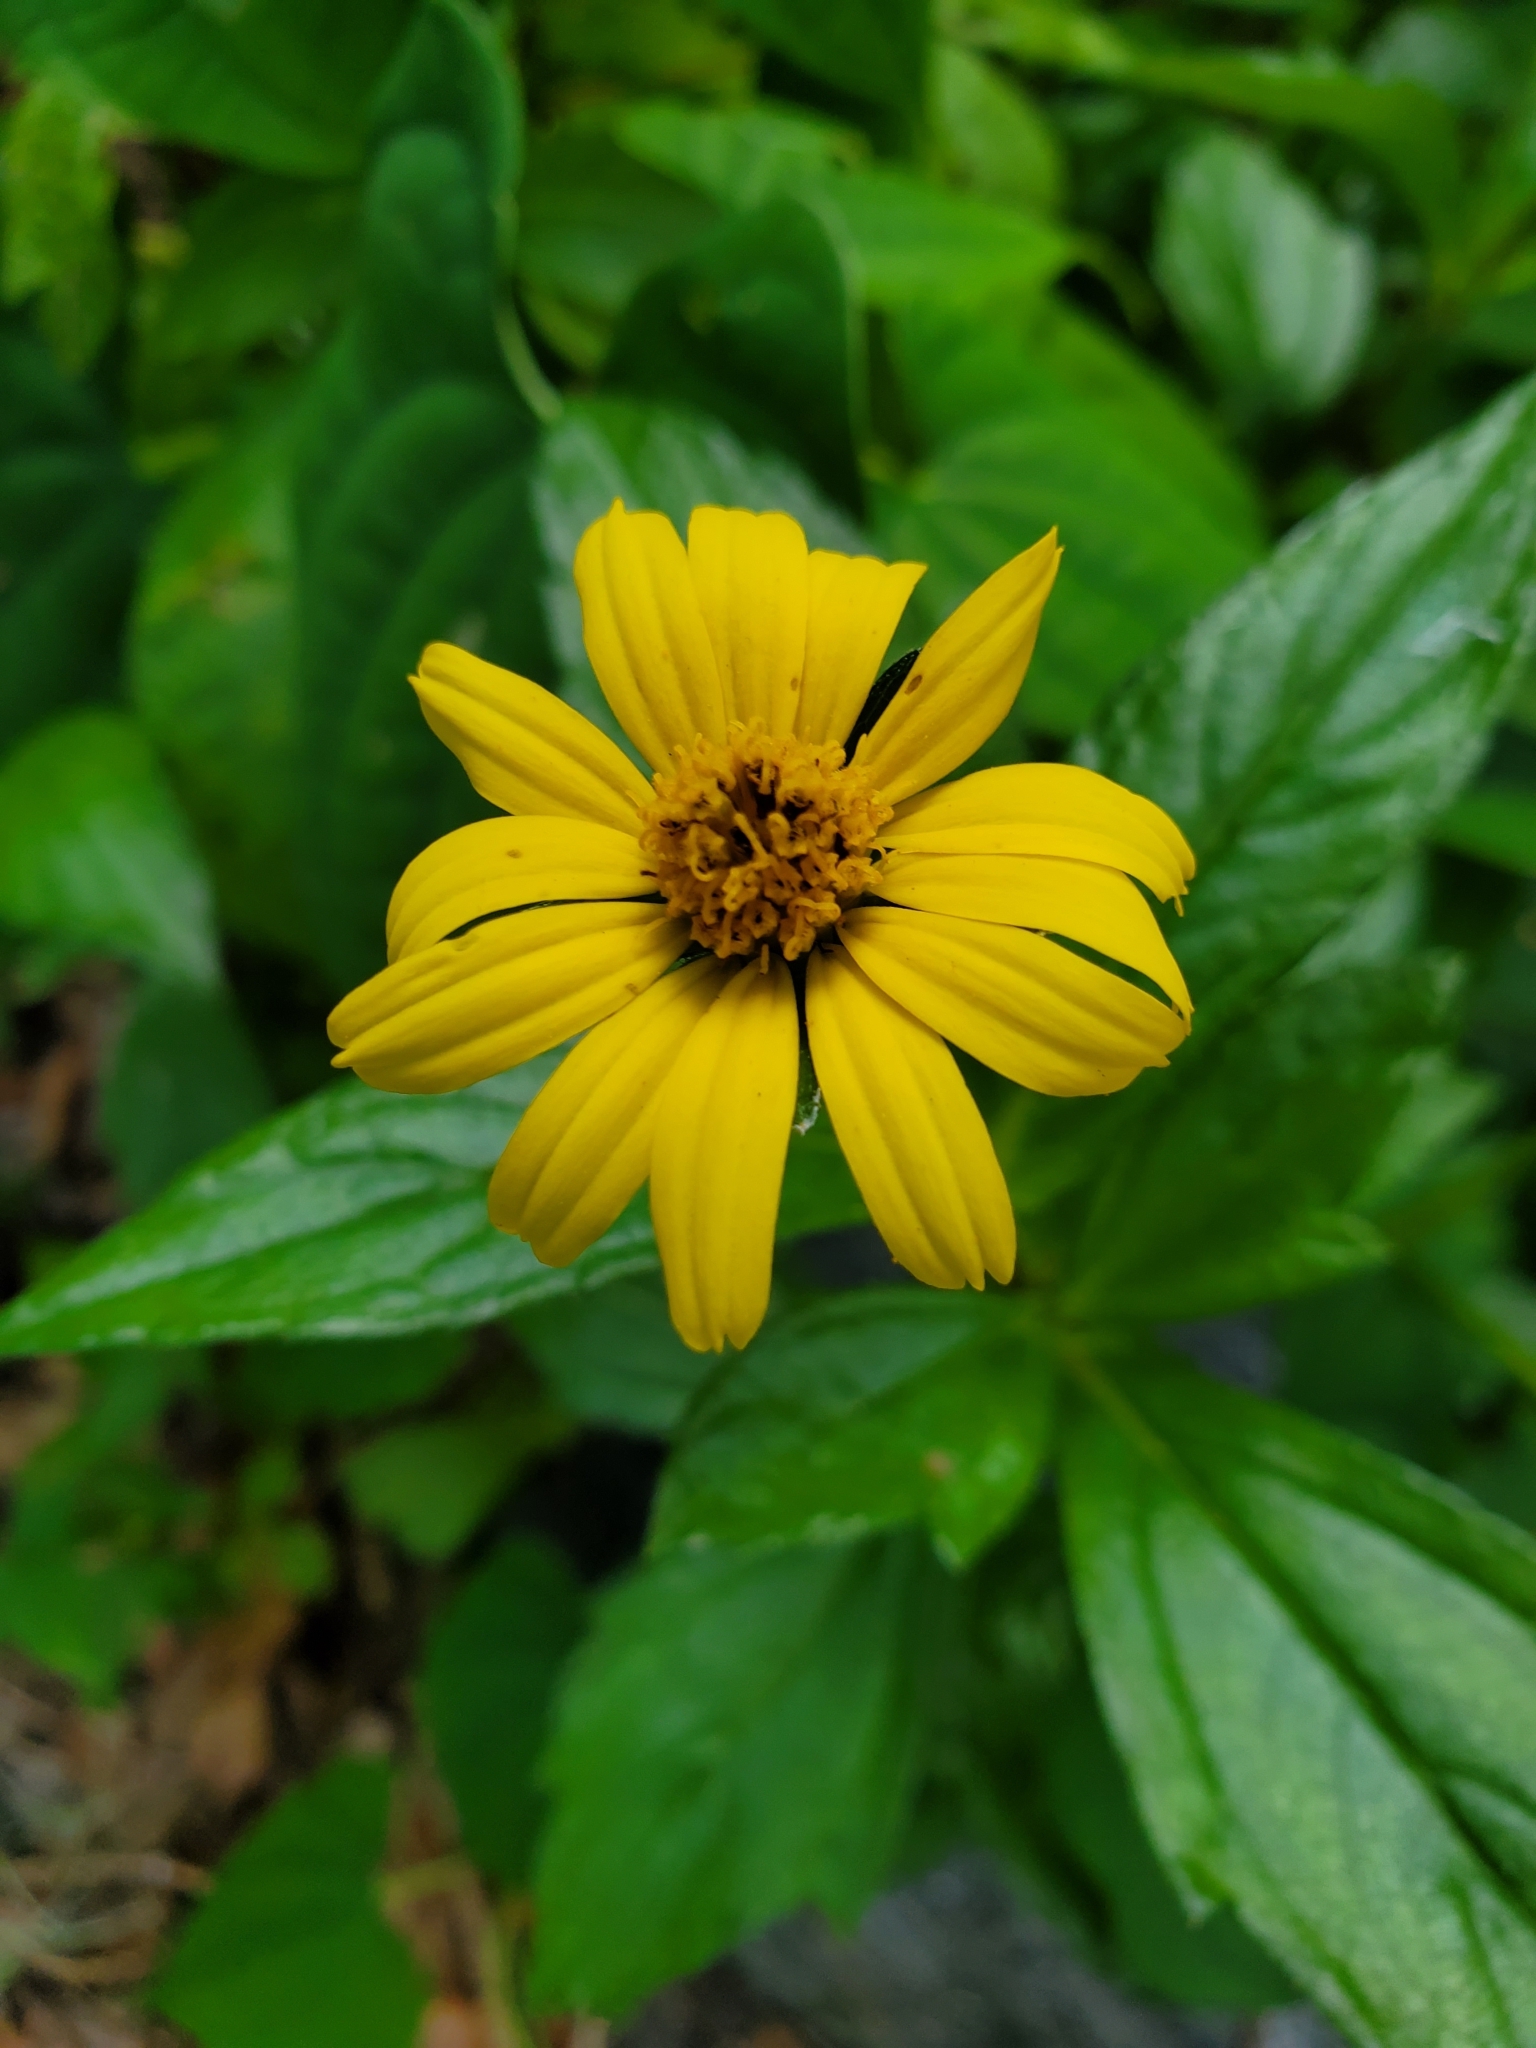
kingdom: Plantae
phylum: Tracheophyta
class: Magnoliopsida
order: Asterales
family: Asteraceae
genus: Sphagneticola
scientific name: Sphagneticola trilobata
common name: Bay biscayne creeping-oxeye
